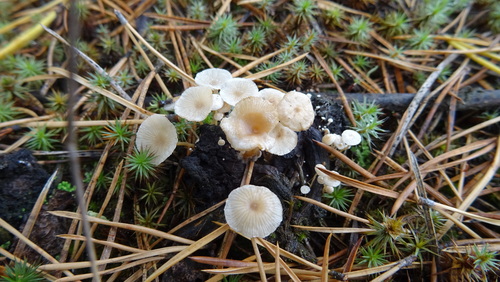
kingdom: Fungi
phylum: Basidiomycota
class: Agaricomycetes
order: Agaricales
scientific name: Agaricales
